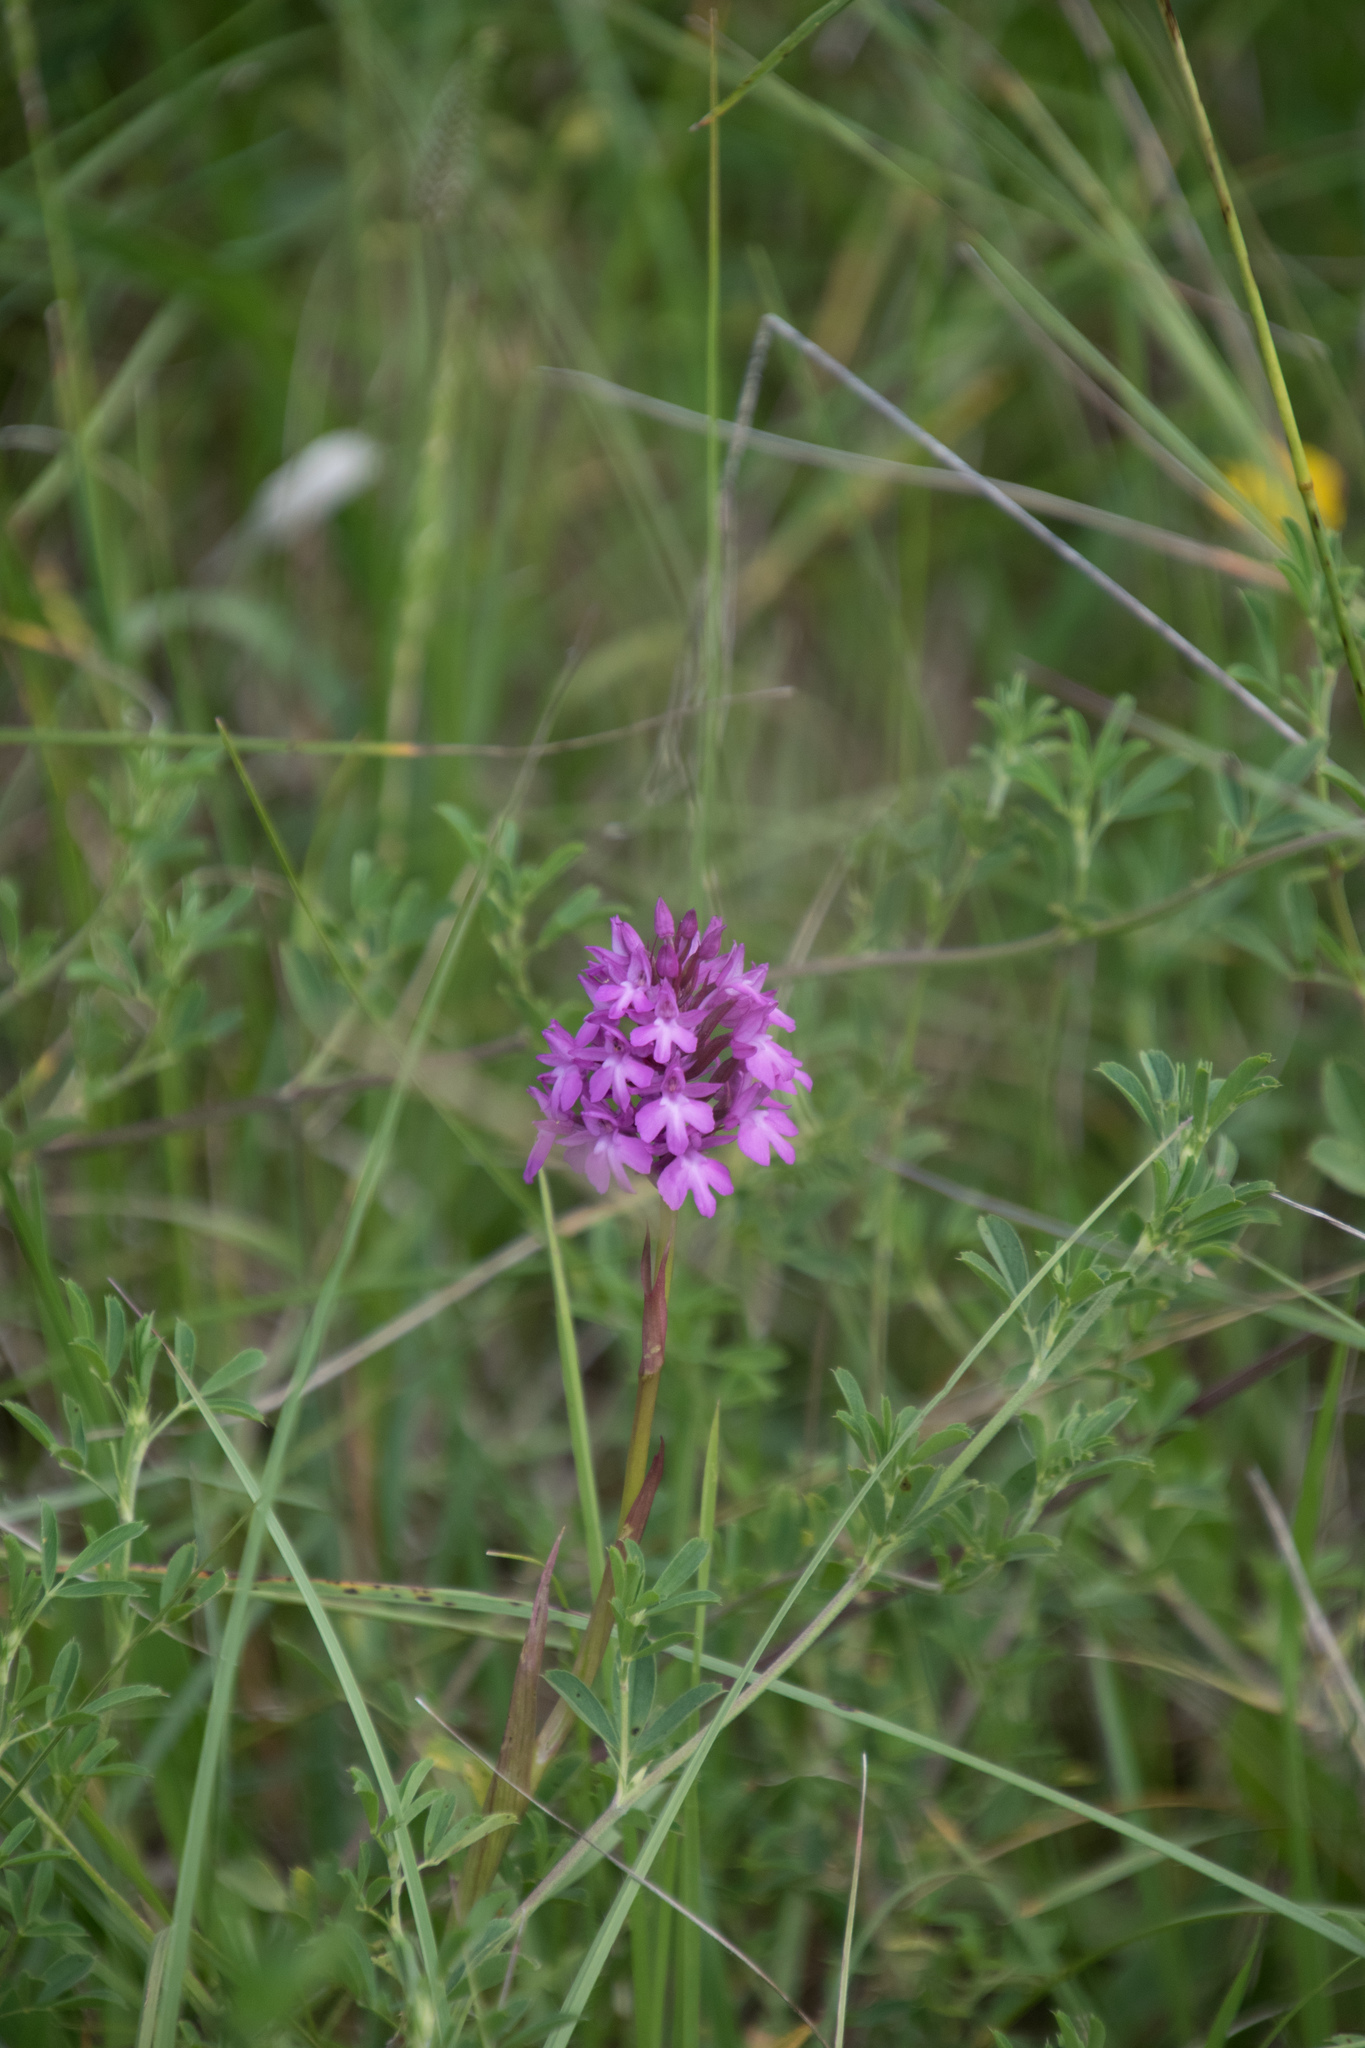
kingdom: Plantae
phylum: Tracheophyta
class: Liliopsida
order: Asparagales
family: Orchidaceae
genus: Anacamptis
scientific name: Anacamptis pyramidalis
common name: Pyramidal orchid
